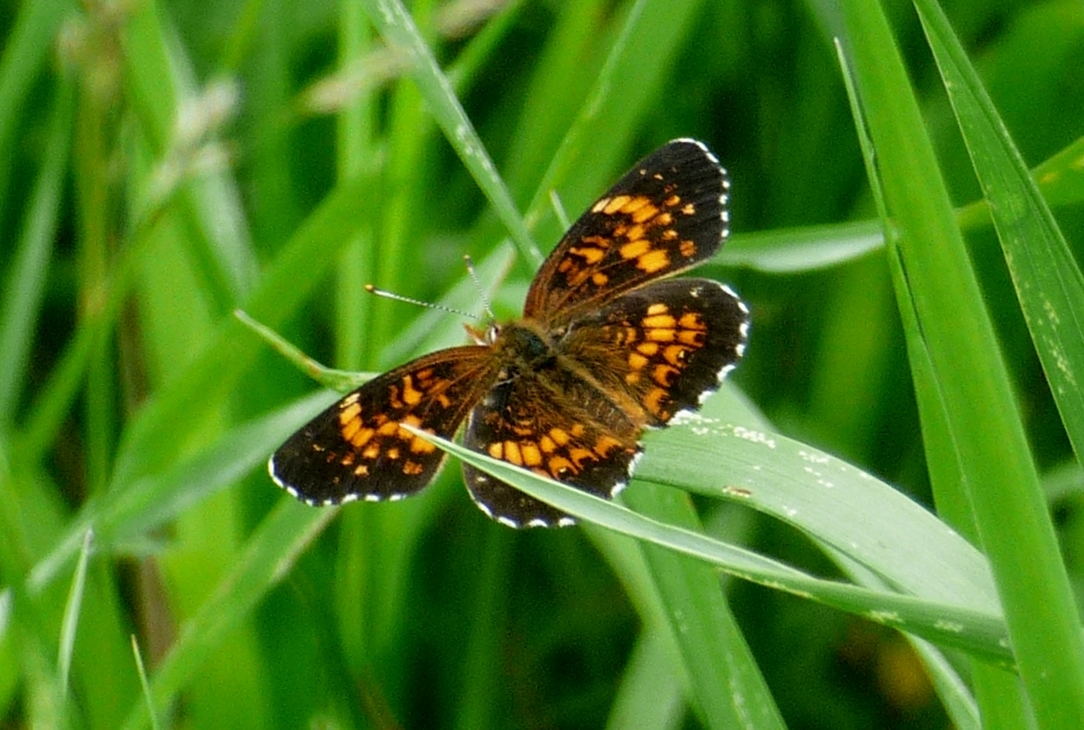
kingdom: Animalia
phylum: Arthropoda
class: Insecta
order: Lepidoptera
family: Nymphalidae
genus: Chlosyne
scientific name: Chlosyne harrisii
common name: Harris's checkerspot
